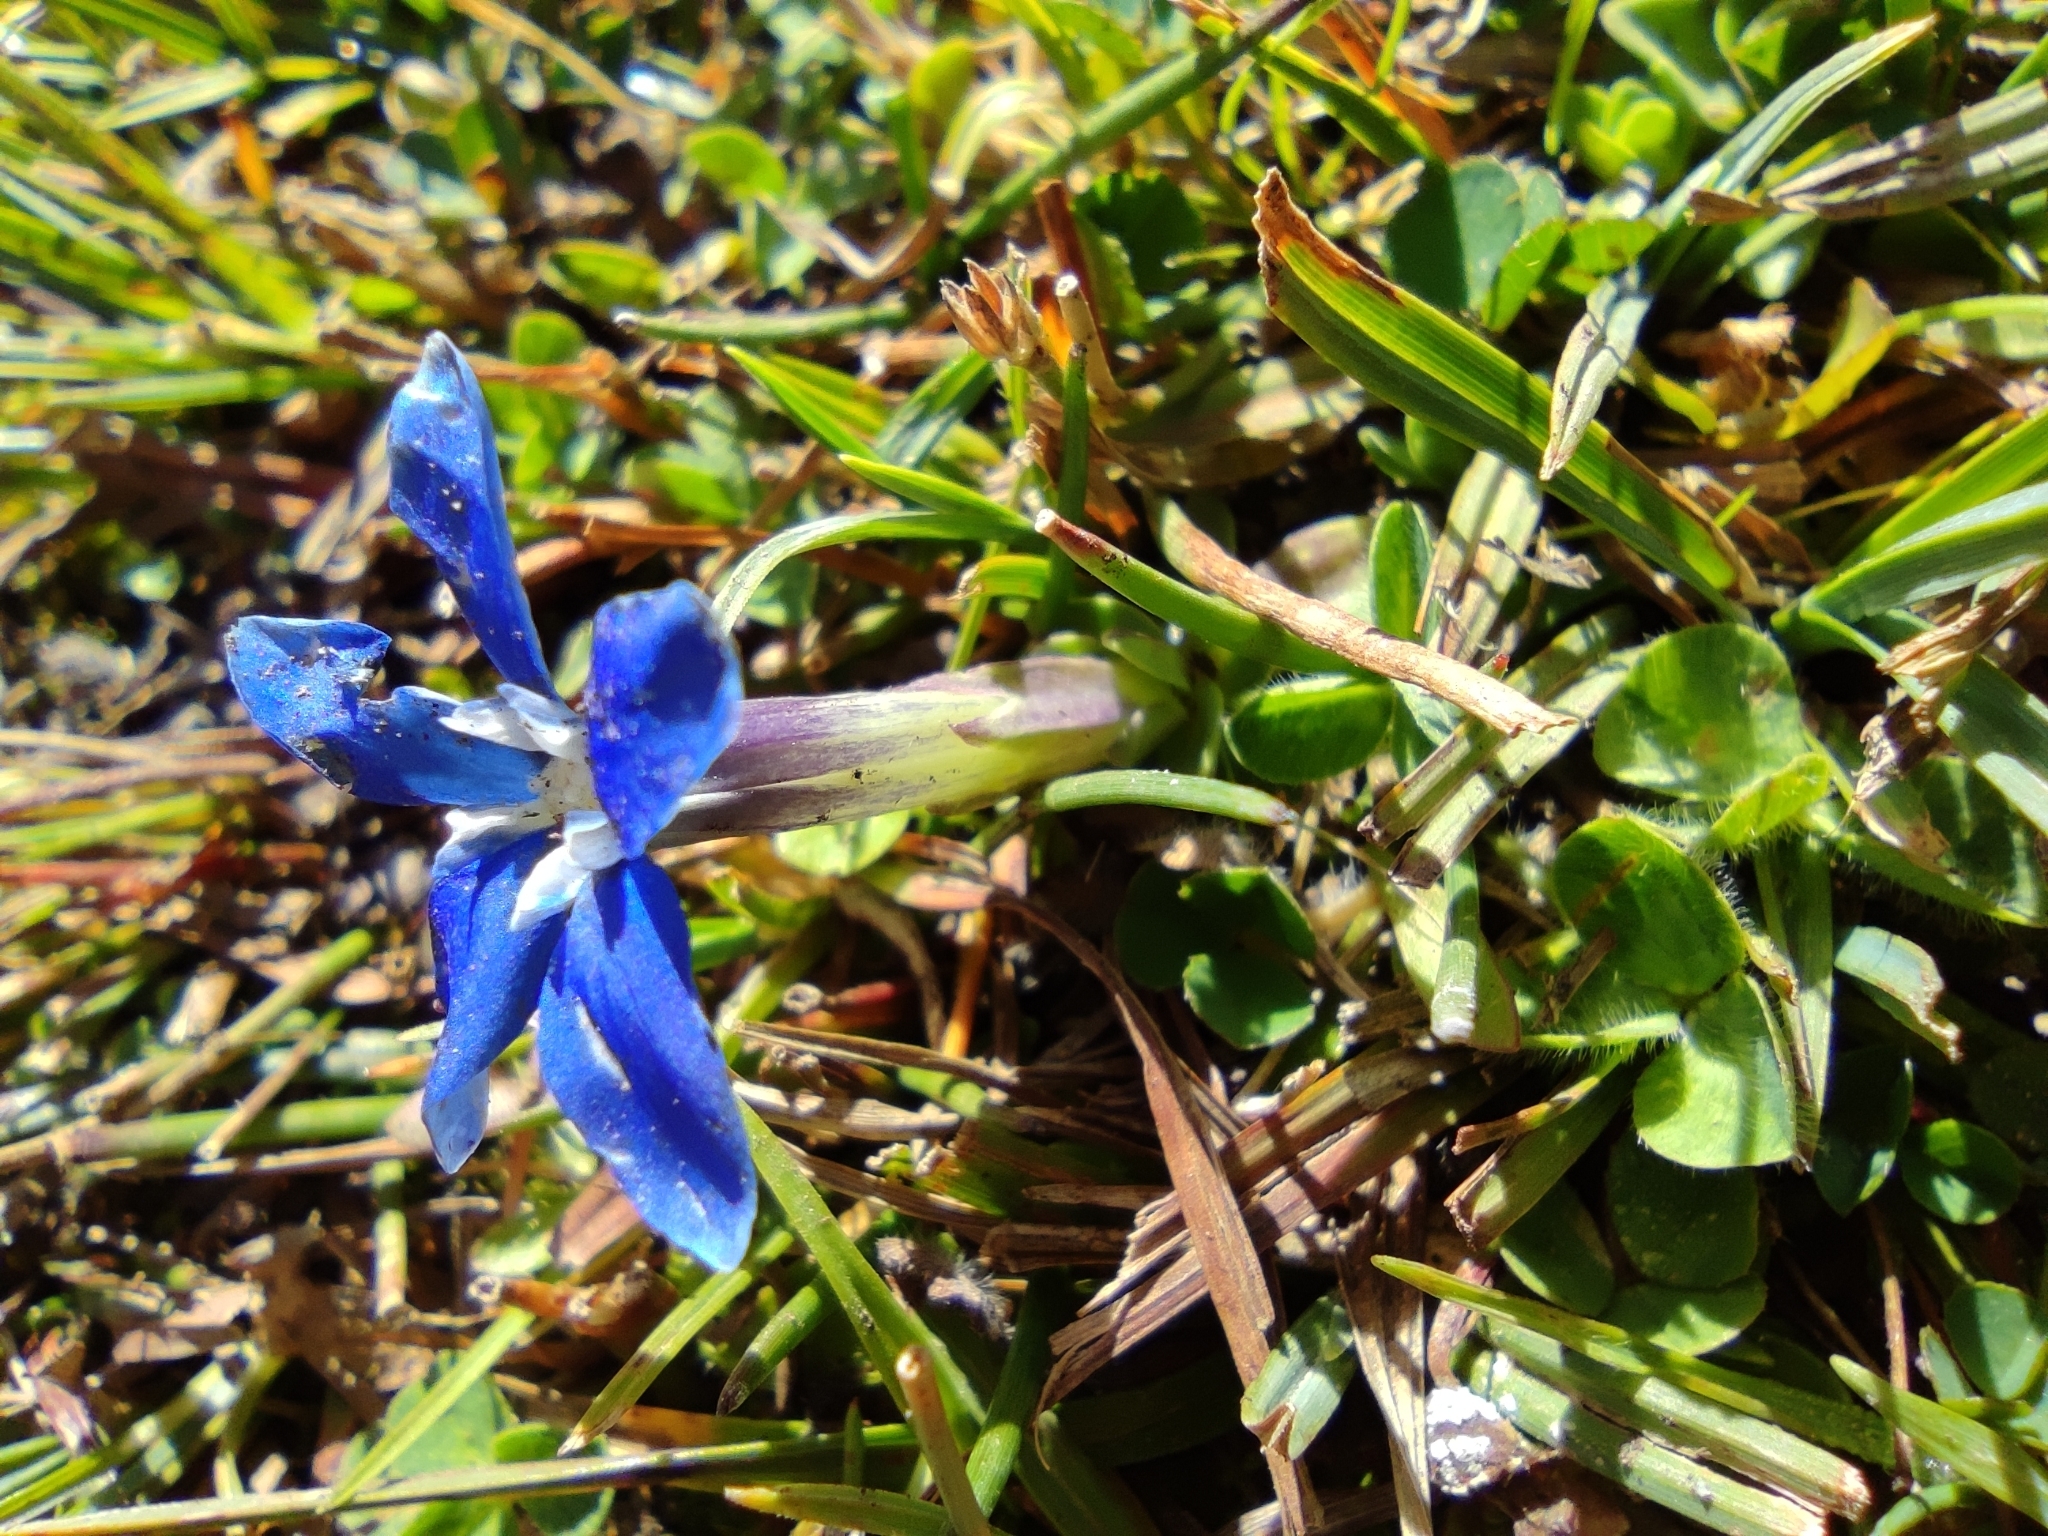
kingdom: Plantae
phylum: Tracheophyta
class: Magnoliopsida
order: Gentianales
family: Gentianaceae
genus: Gentiana
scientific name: Gentiana sierrae
